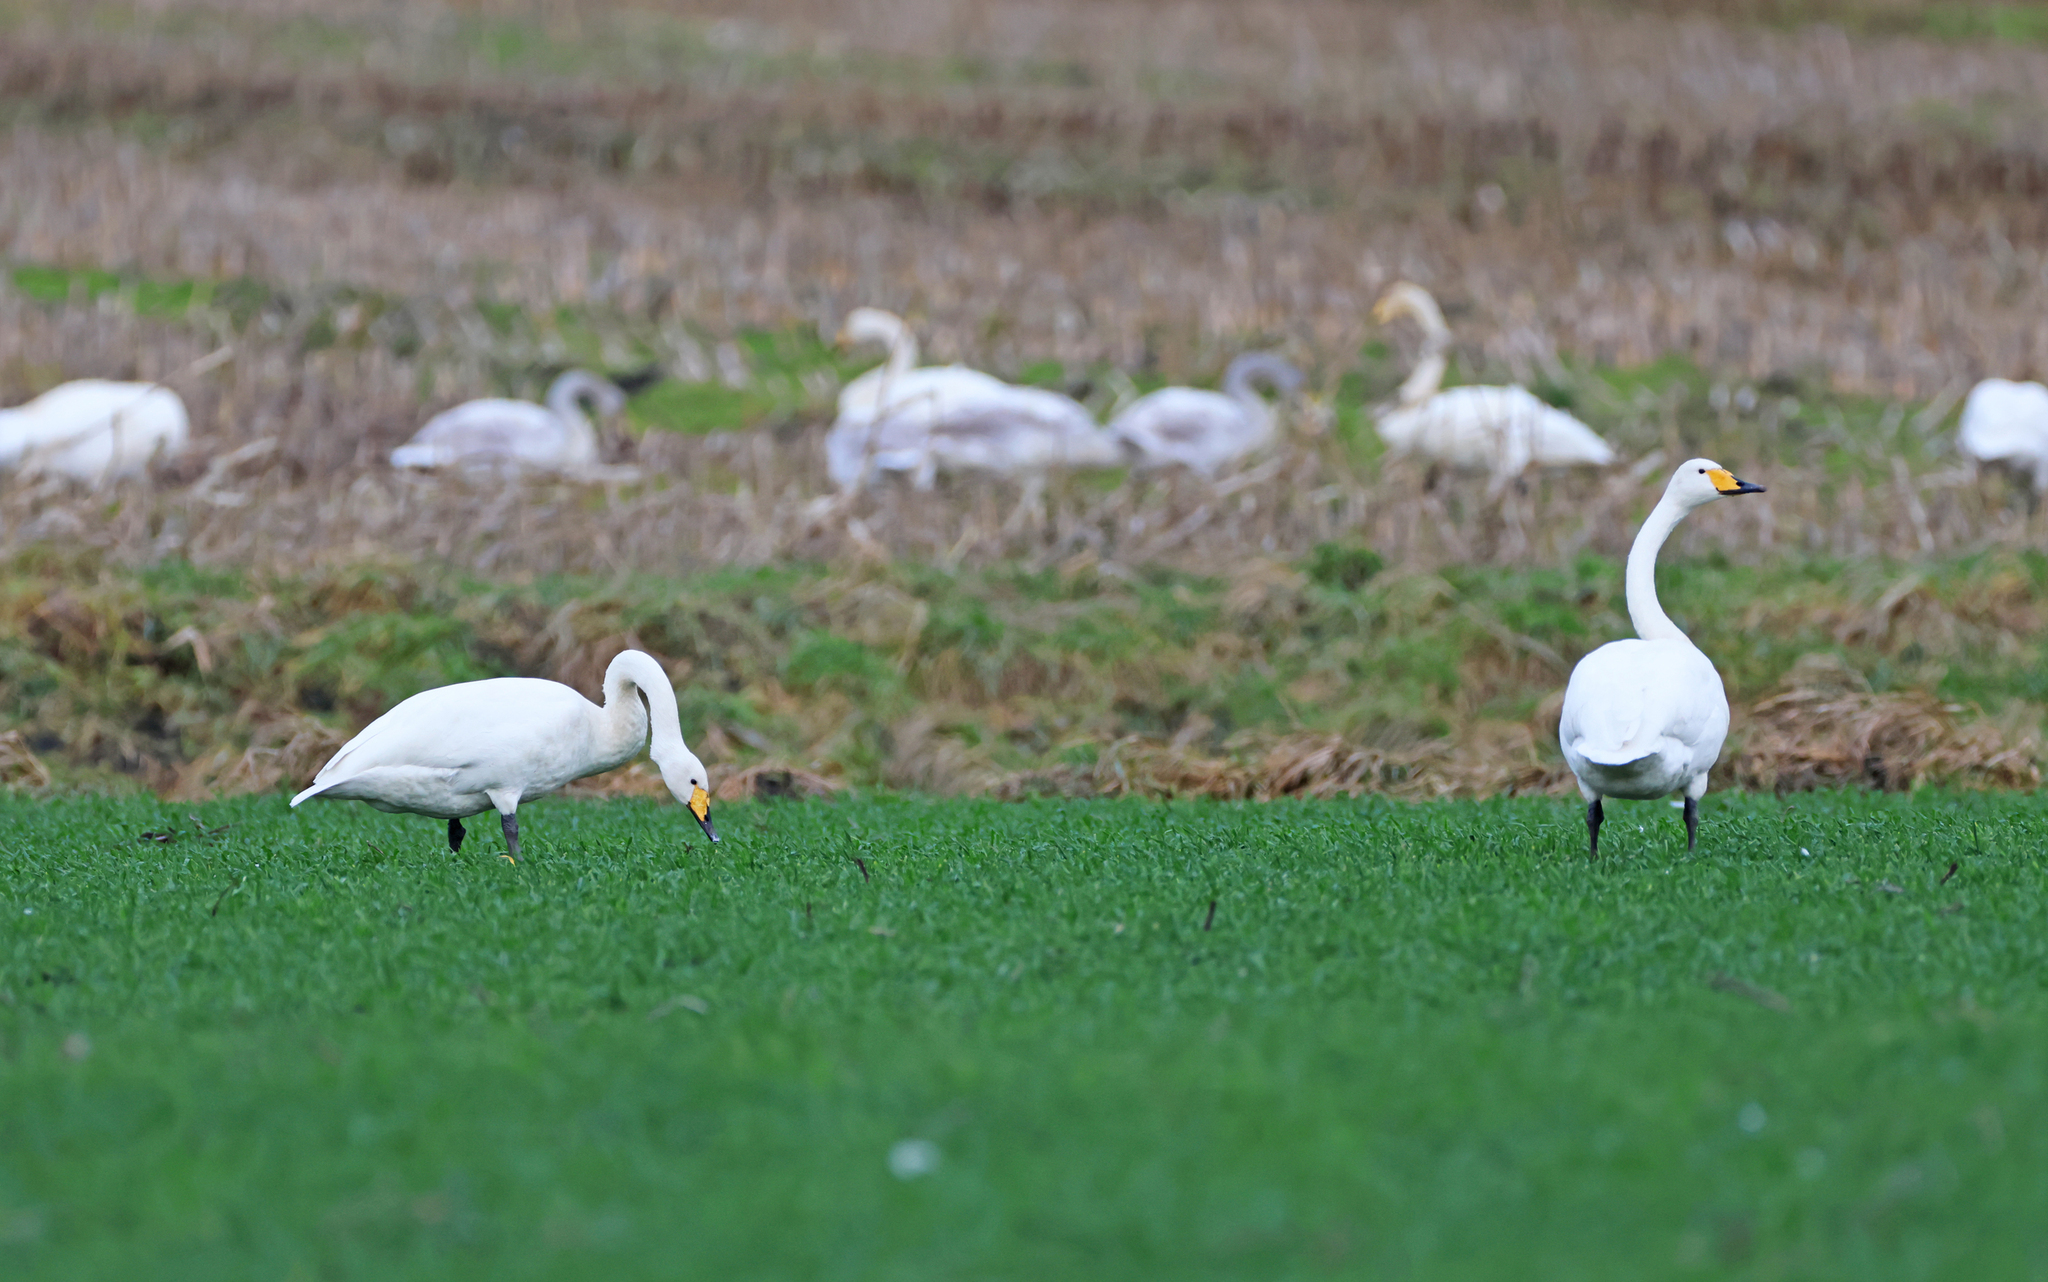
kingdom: Animalia
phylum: Chordata
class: Aves
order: Anseriformes
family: Anatidae
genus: Cygnus
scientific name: Cygnus cygnus
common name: Whooper swan
